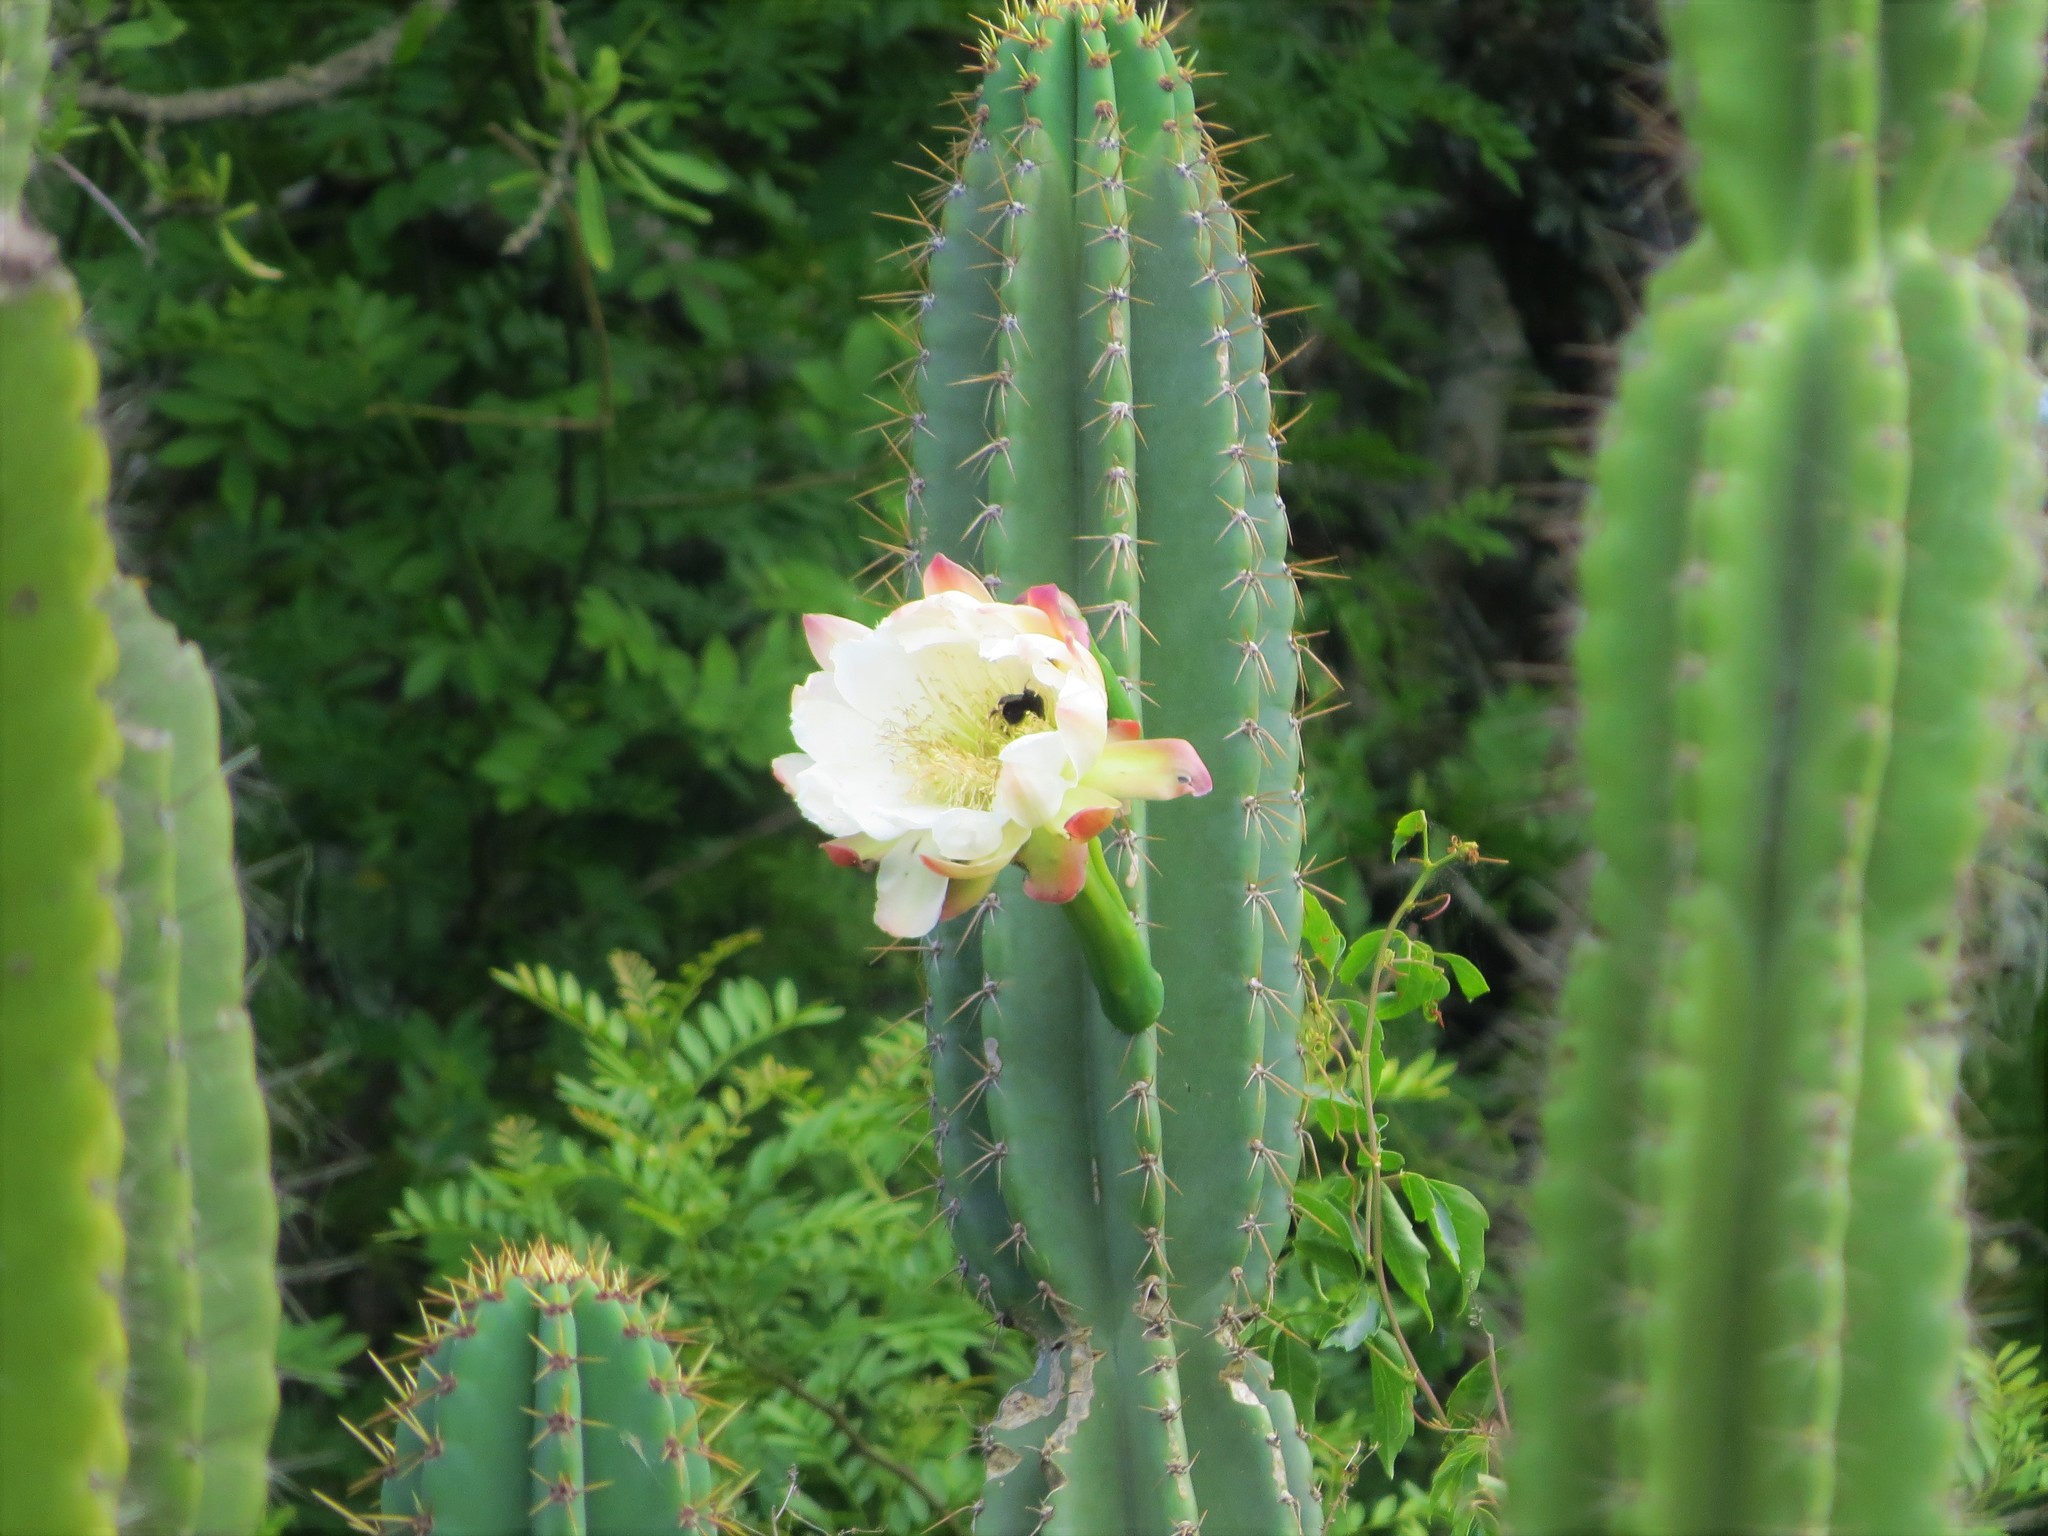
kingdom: Plantae
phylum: Tracheophyta
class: Magnoliopsida
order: Caryophyllales
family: Cactaceae
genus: Cereus
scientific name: Cereus hildmannianus
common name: Hedge cactus
